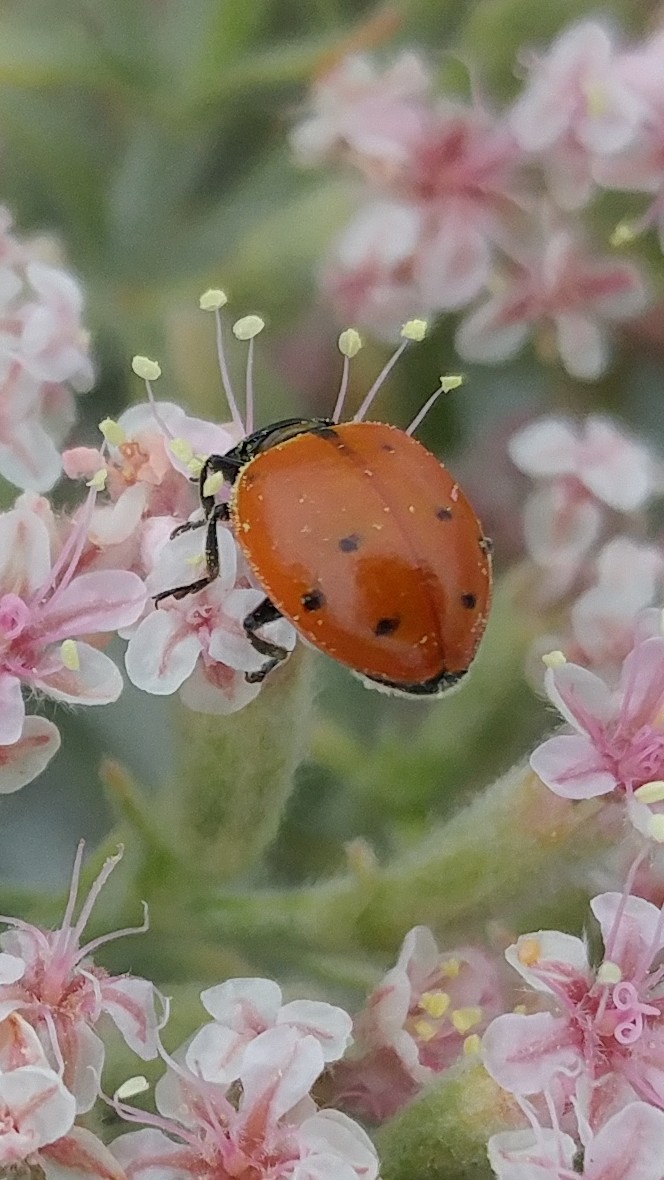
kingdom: Animalia
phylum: Arthropoda
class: Insecta
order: Coleoptera
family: Coccinellidae
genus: Hippodamia
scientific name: Hippodamia convergens
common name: Convergent lady beetle
